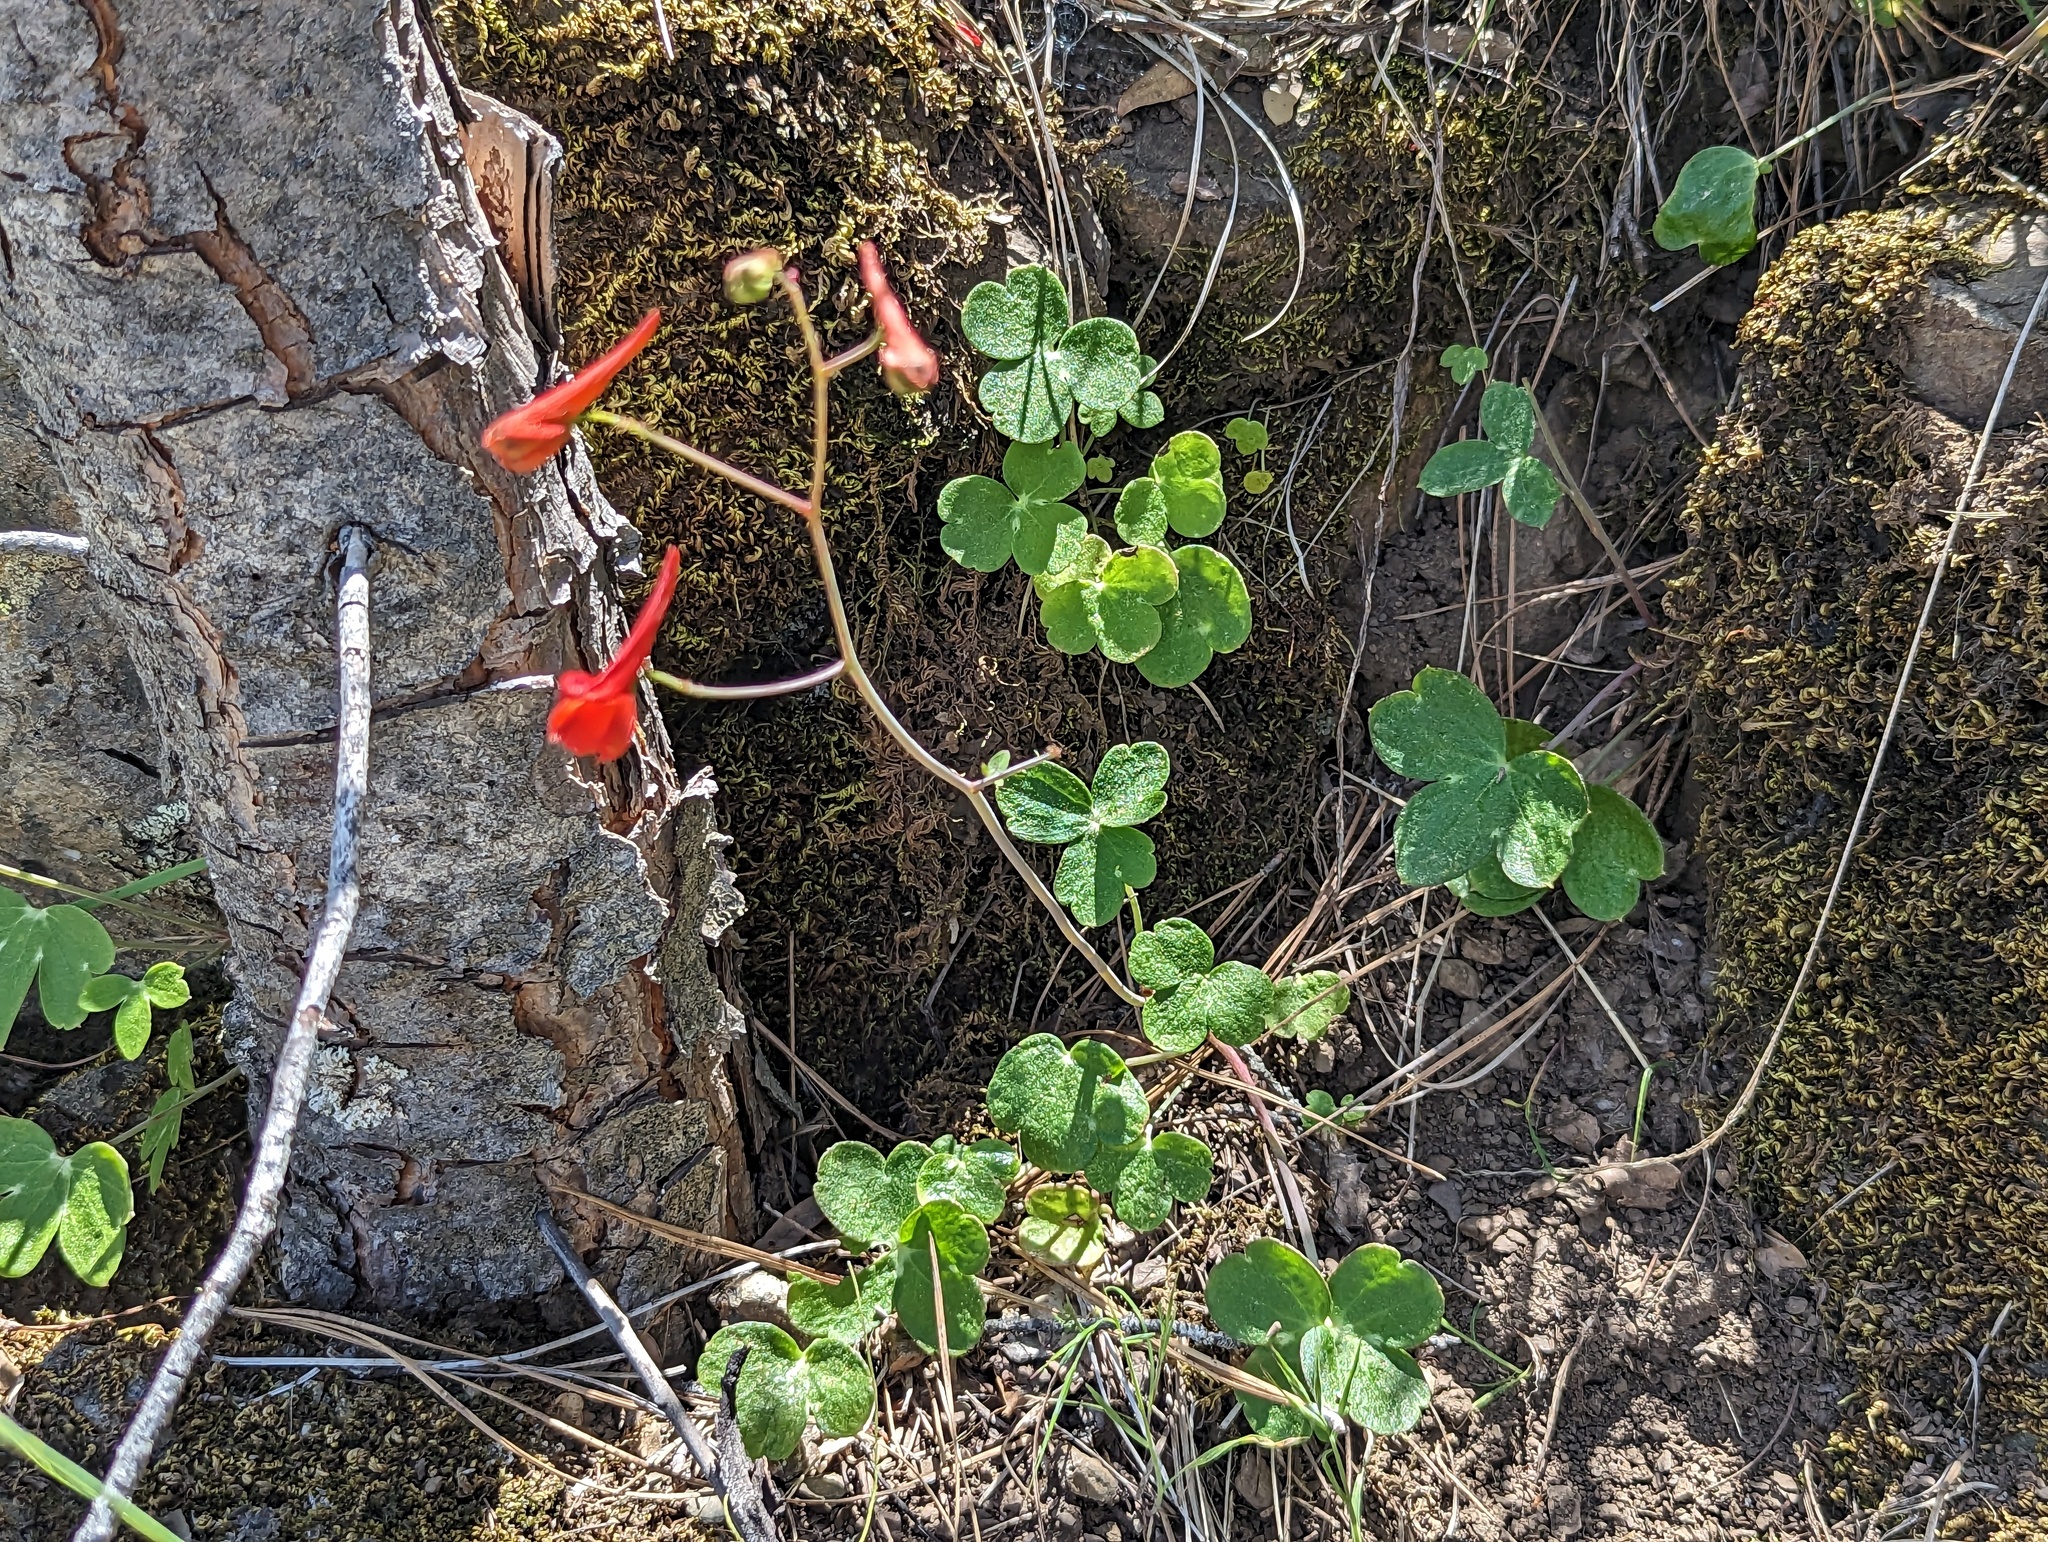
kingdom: Plantae
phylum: Tracheophyta
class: Magnoliopsida
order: Ranunculales
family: Ranunculaceae
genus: Delphinium
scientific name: Delphinium nudicaule
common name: Red larkspur
